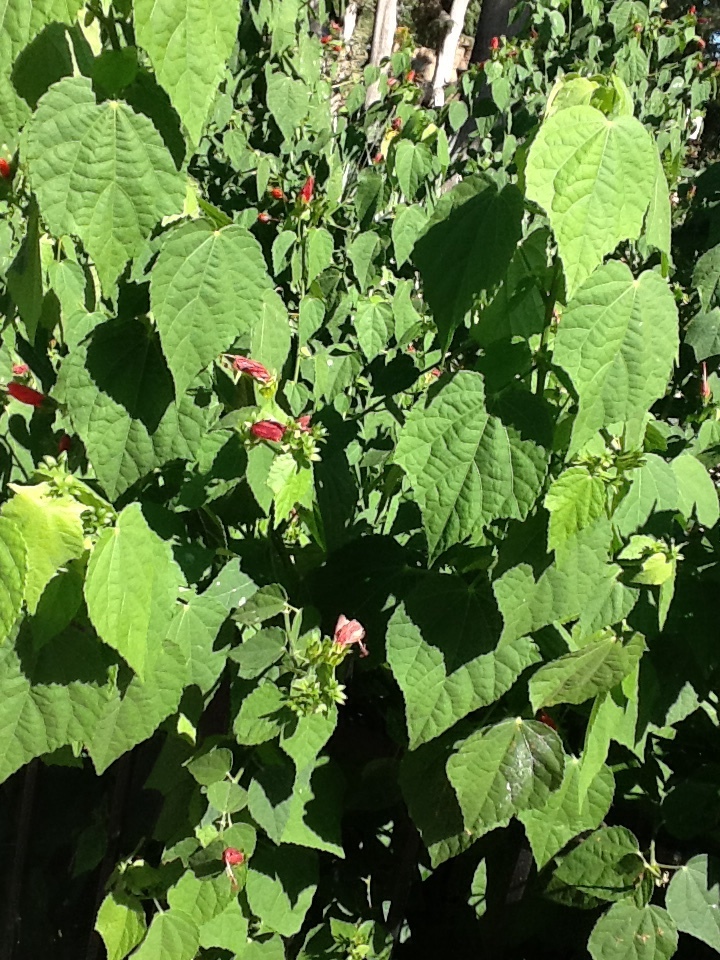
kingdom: Plantae
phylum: Tracheophyta
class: Magnoliopsida
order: Malvales
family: Malvaceae
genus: Malvaviscus
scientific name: Malvaviscus penduliflorus
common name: Mazapan
